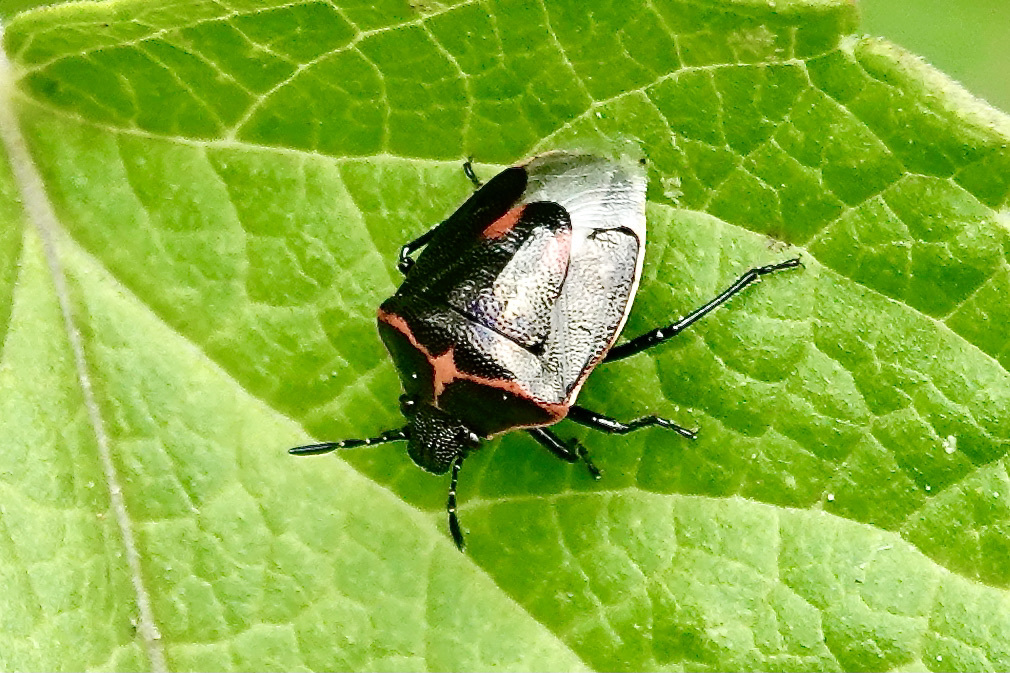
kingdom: Animalia
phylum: Arthropoda
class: Insecta
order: Hemiptera
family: Pentatomidae
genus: Cosmopepla
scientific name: Cosmopepla lintneriana
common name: Twice-stabbed stink bug
